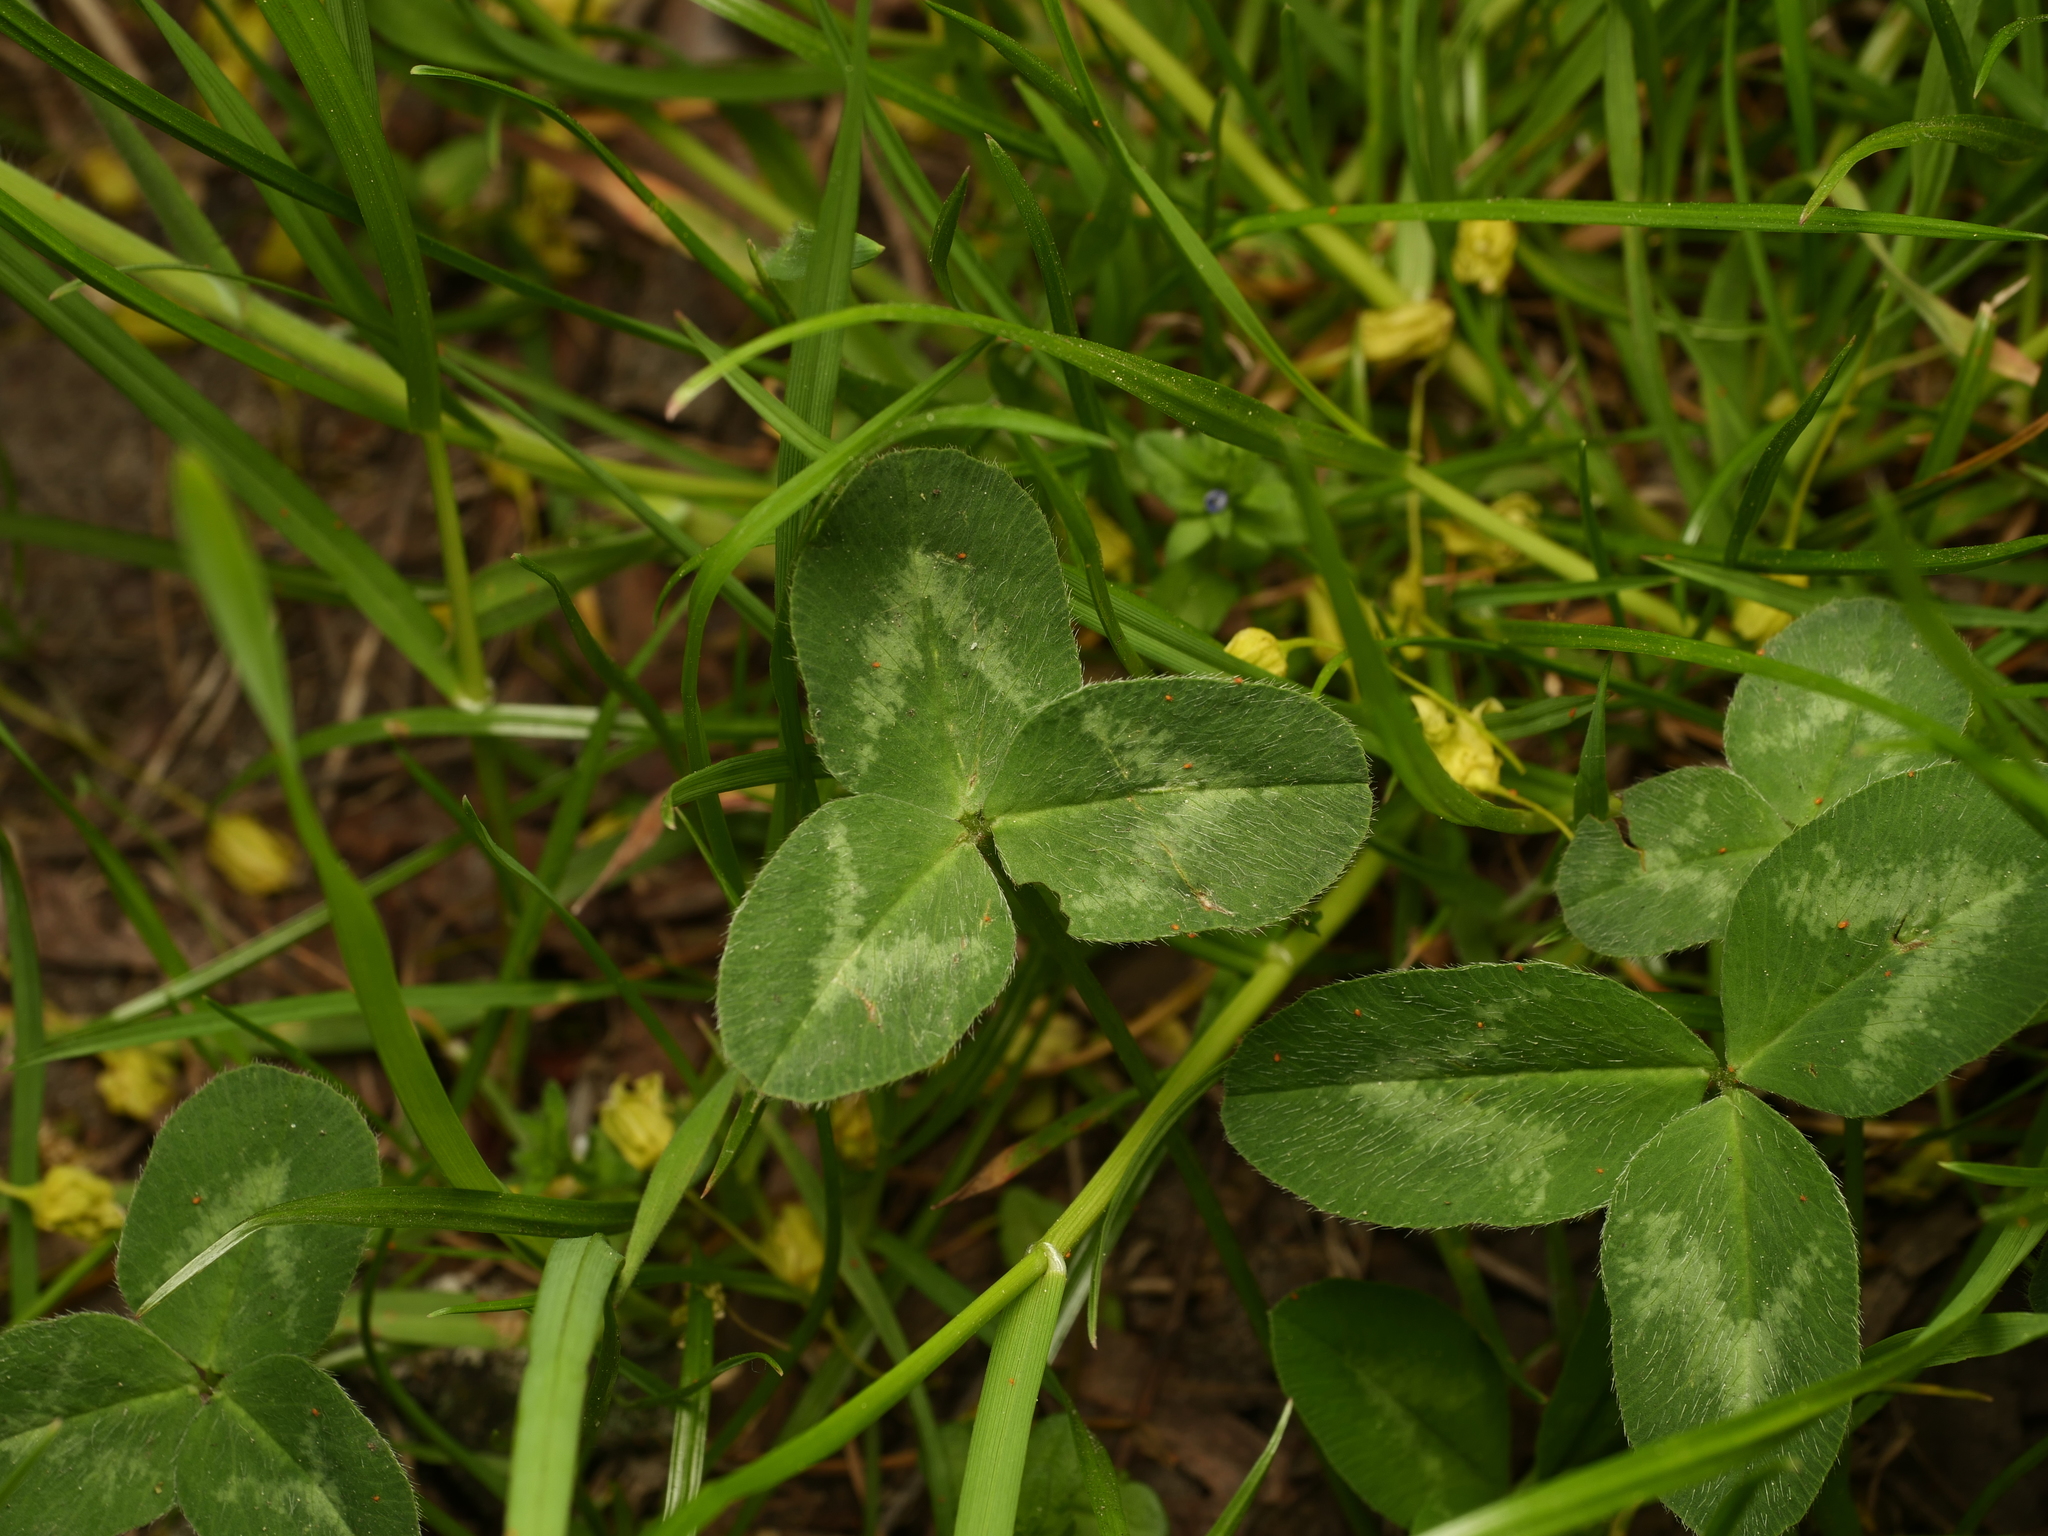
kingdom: Plantae
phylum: Tracheophyta
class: Magnoliopsida
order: Fabales
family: Fabaceae
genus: Trifolium
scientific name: Trifolium pratense
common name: Red clover
